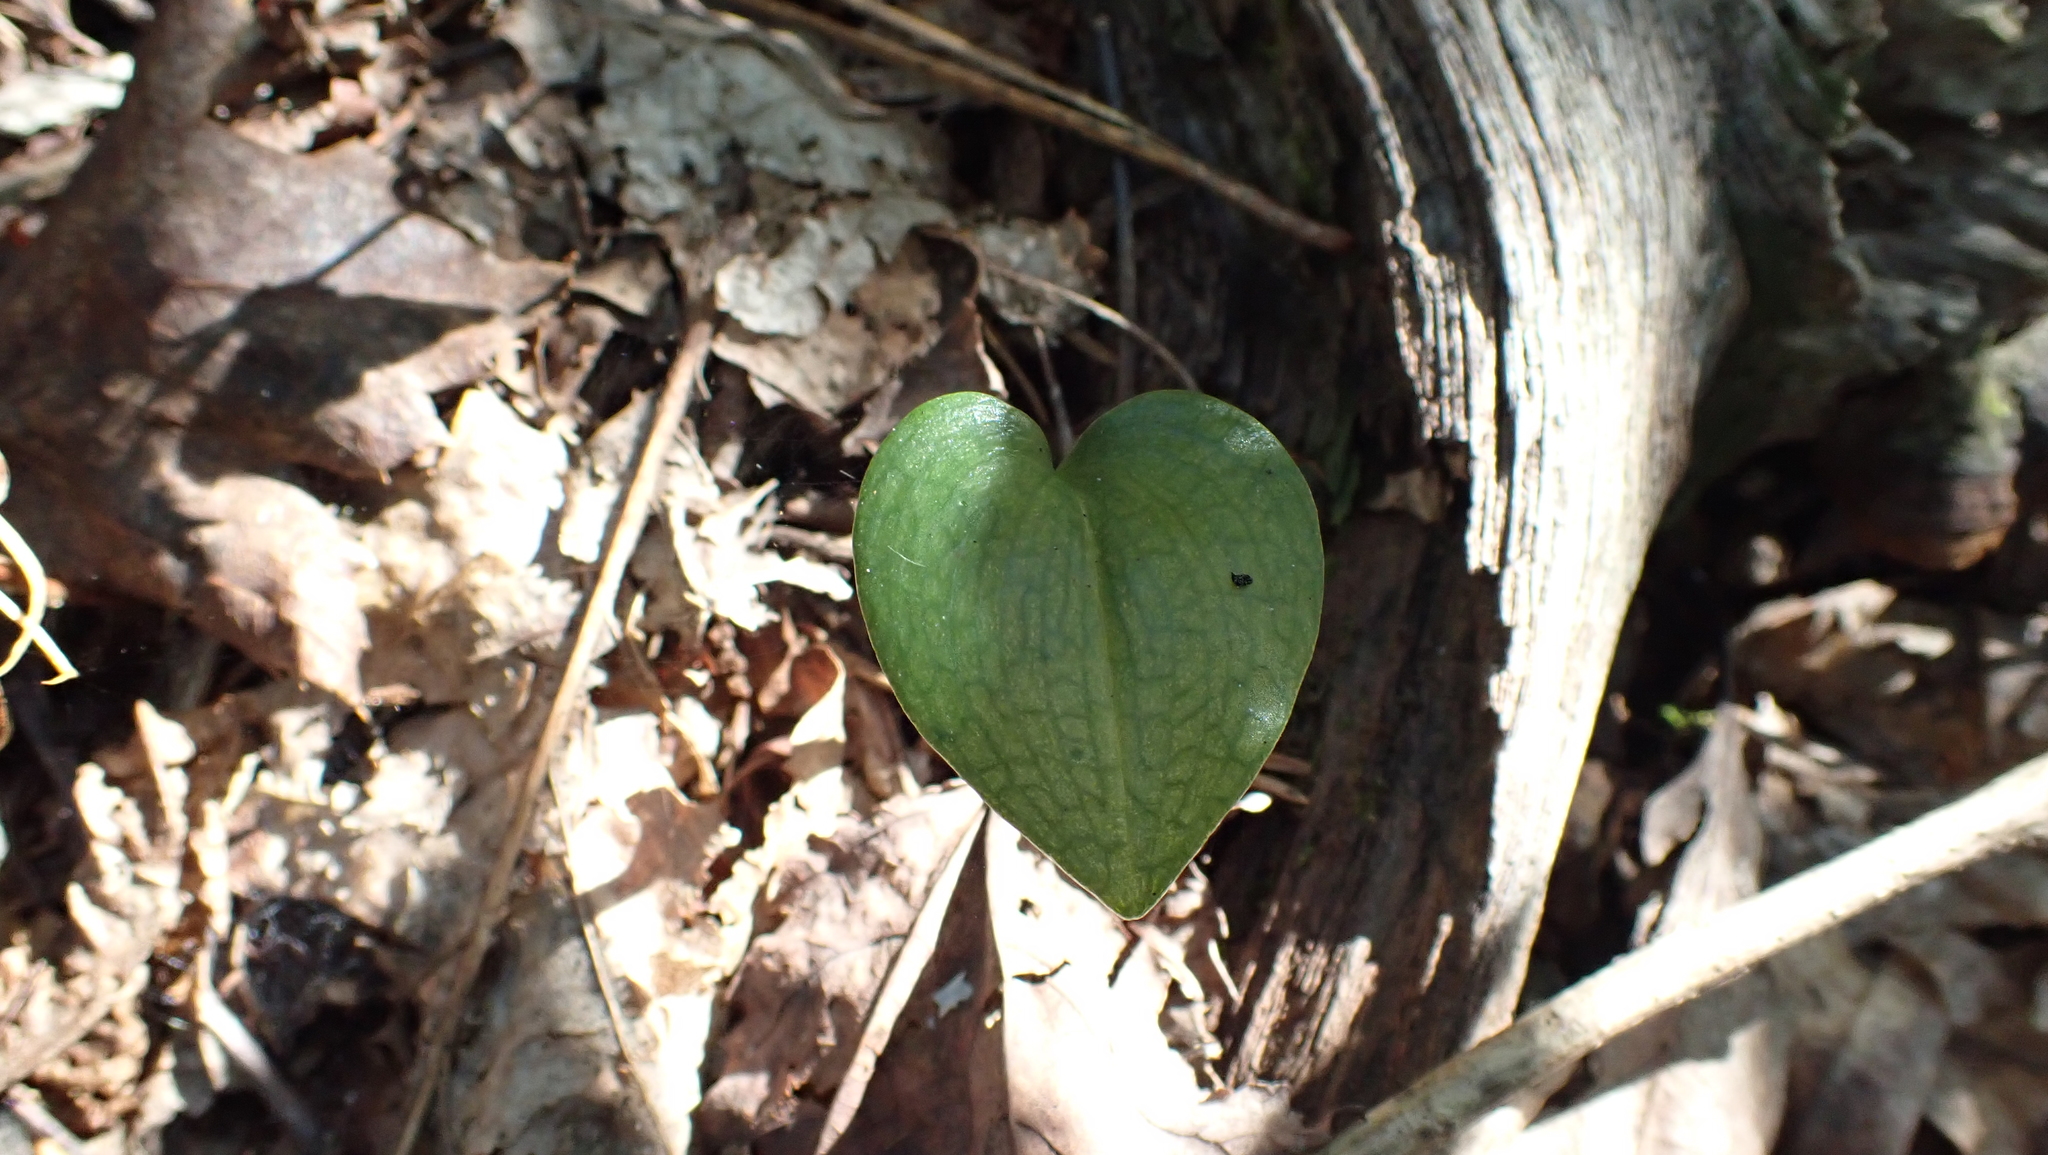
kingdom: Plantae
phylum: Tracheophyta
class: Liliopsida
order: Asparagales
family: Orchidaceae
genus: Malaxis
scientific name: Malaxis unifolia
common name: Green adder's-mouth
